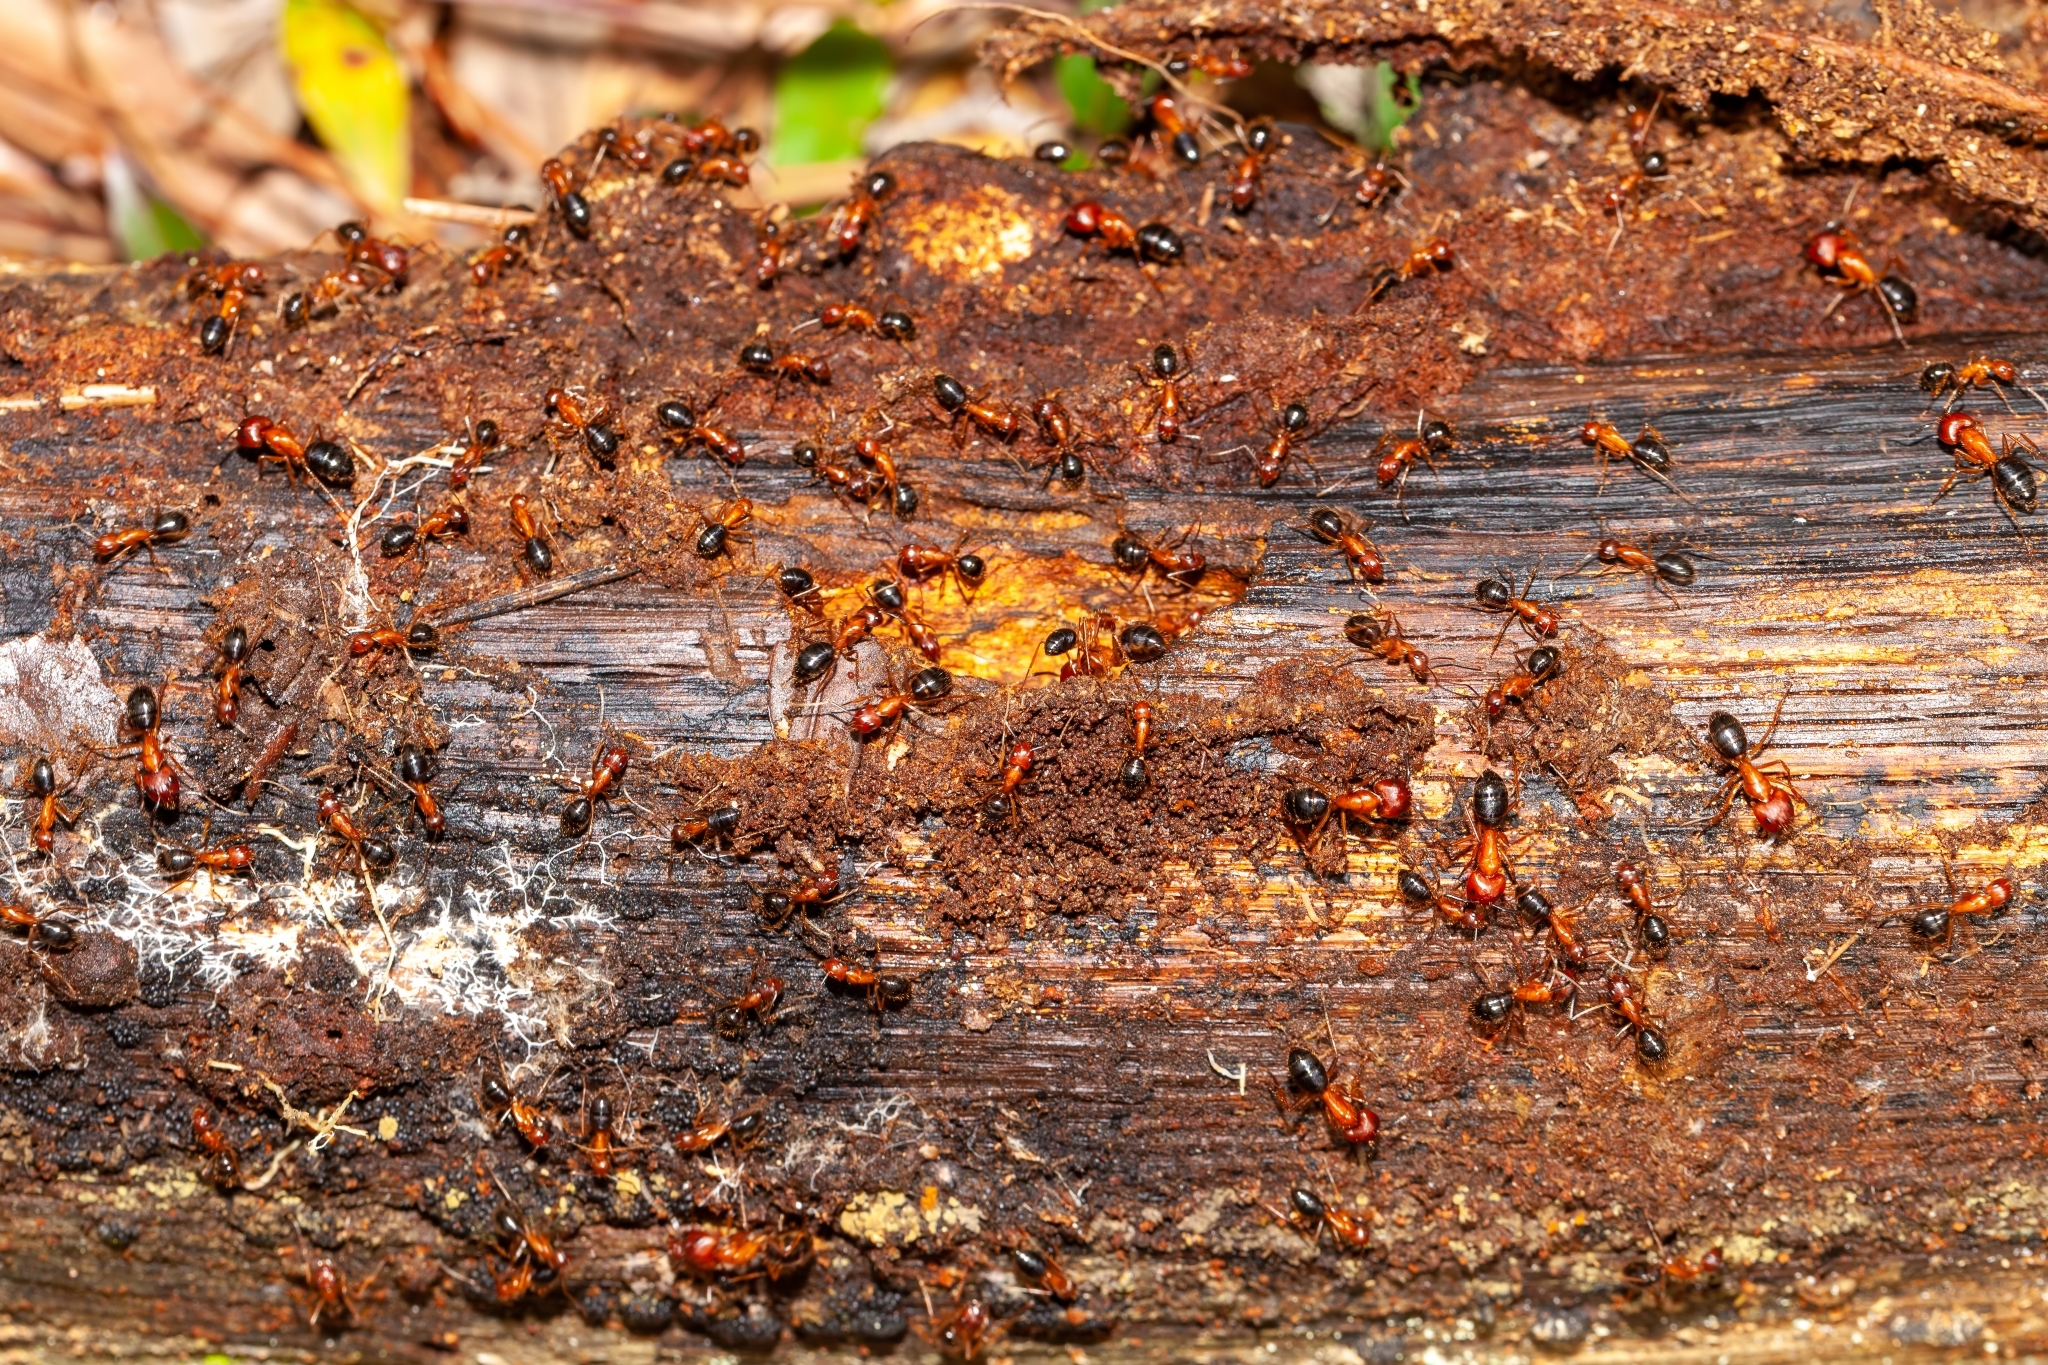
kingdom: Animalia
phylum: Arthropoda
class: Insecta
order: Hymenoptera
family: Formicidae
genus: Camponotus
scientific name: Camponotus floridanus
